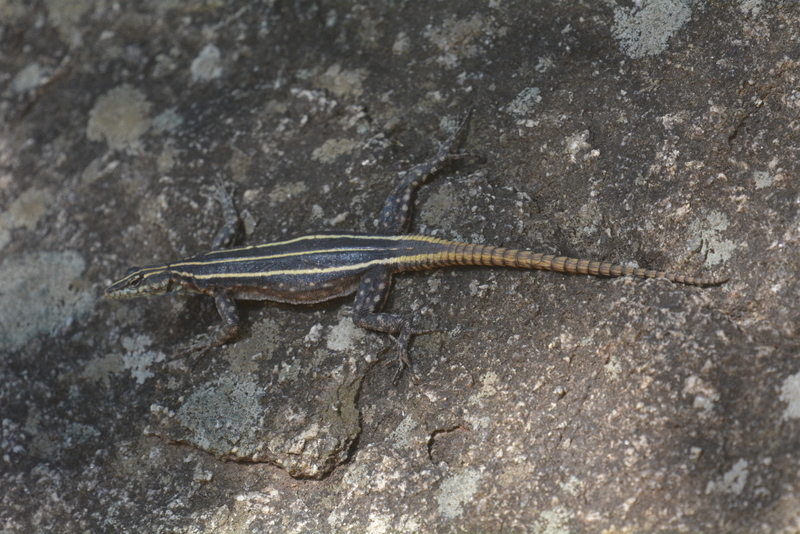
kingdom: Animalia
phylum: Chordata
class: Squamata
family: Cordylidae
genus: Platysaurus
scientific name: Platysaurus intermedius
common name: Common flat lizard
